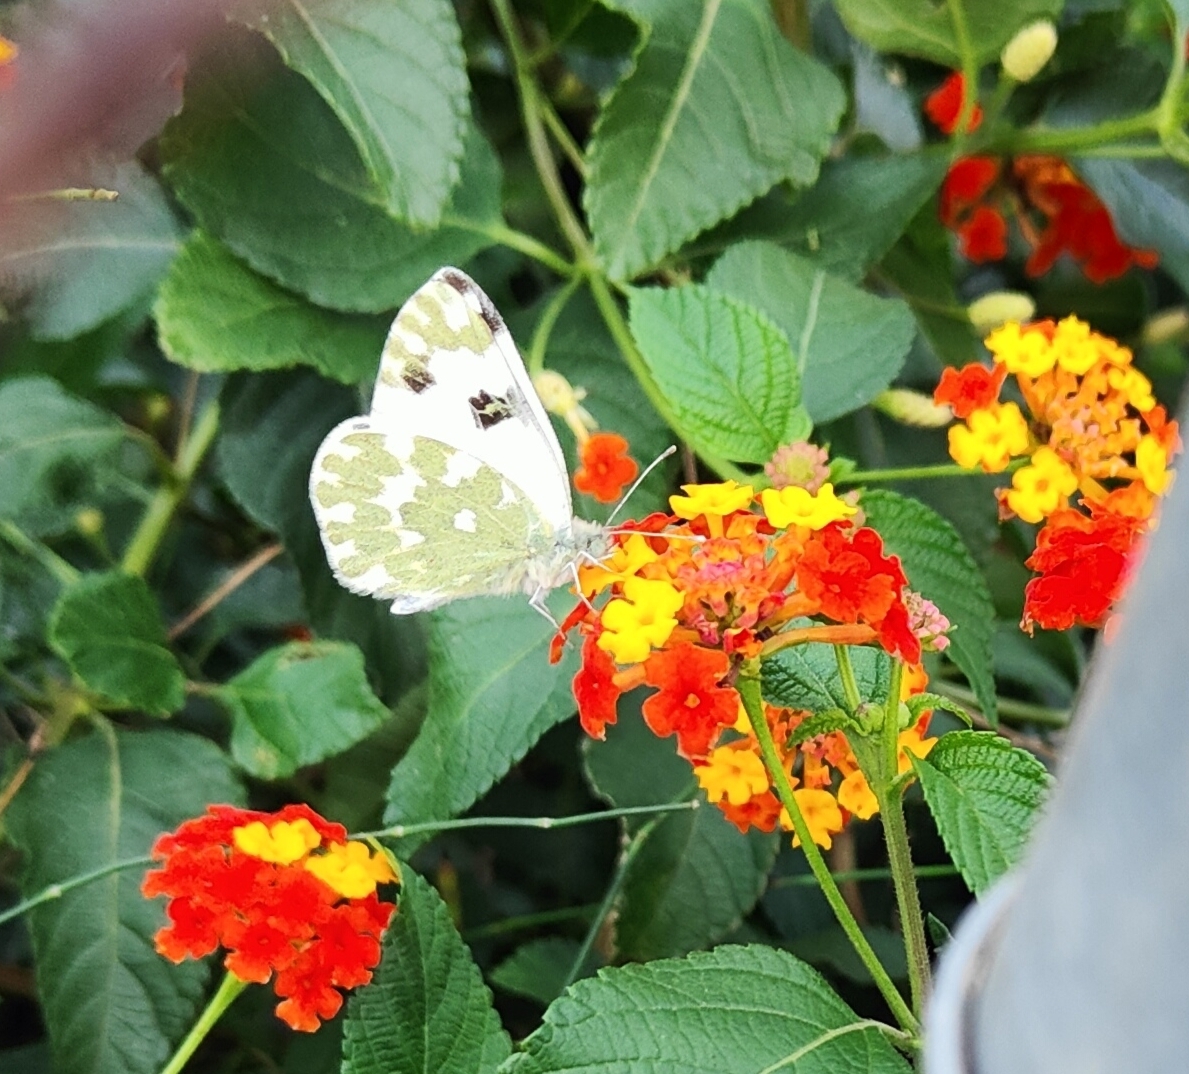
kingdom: Animalia
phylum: Arthropoda
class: Insecta
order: Lepidoptera
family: Pieridae
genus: Pontia
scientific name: Pontia daplidice
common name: Bath white
